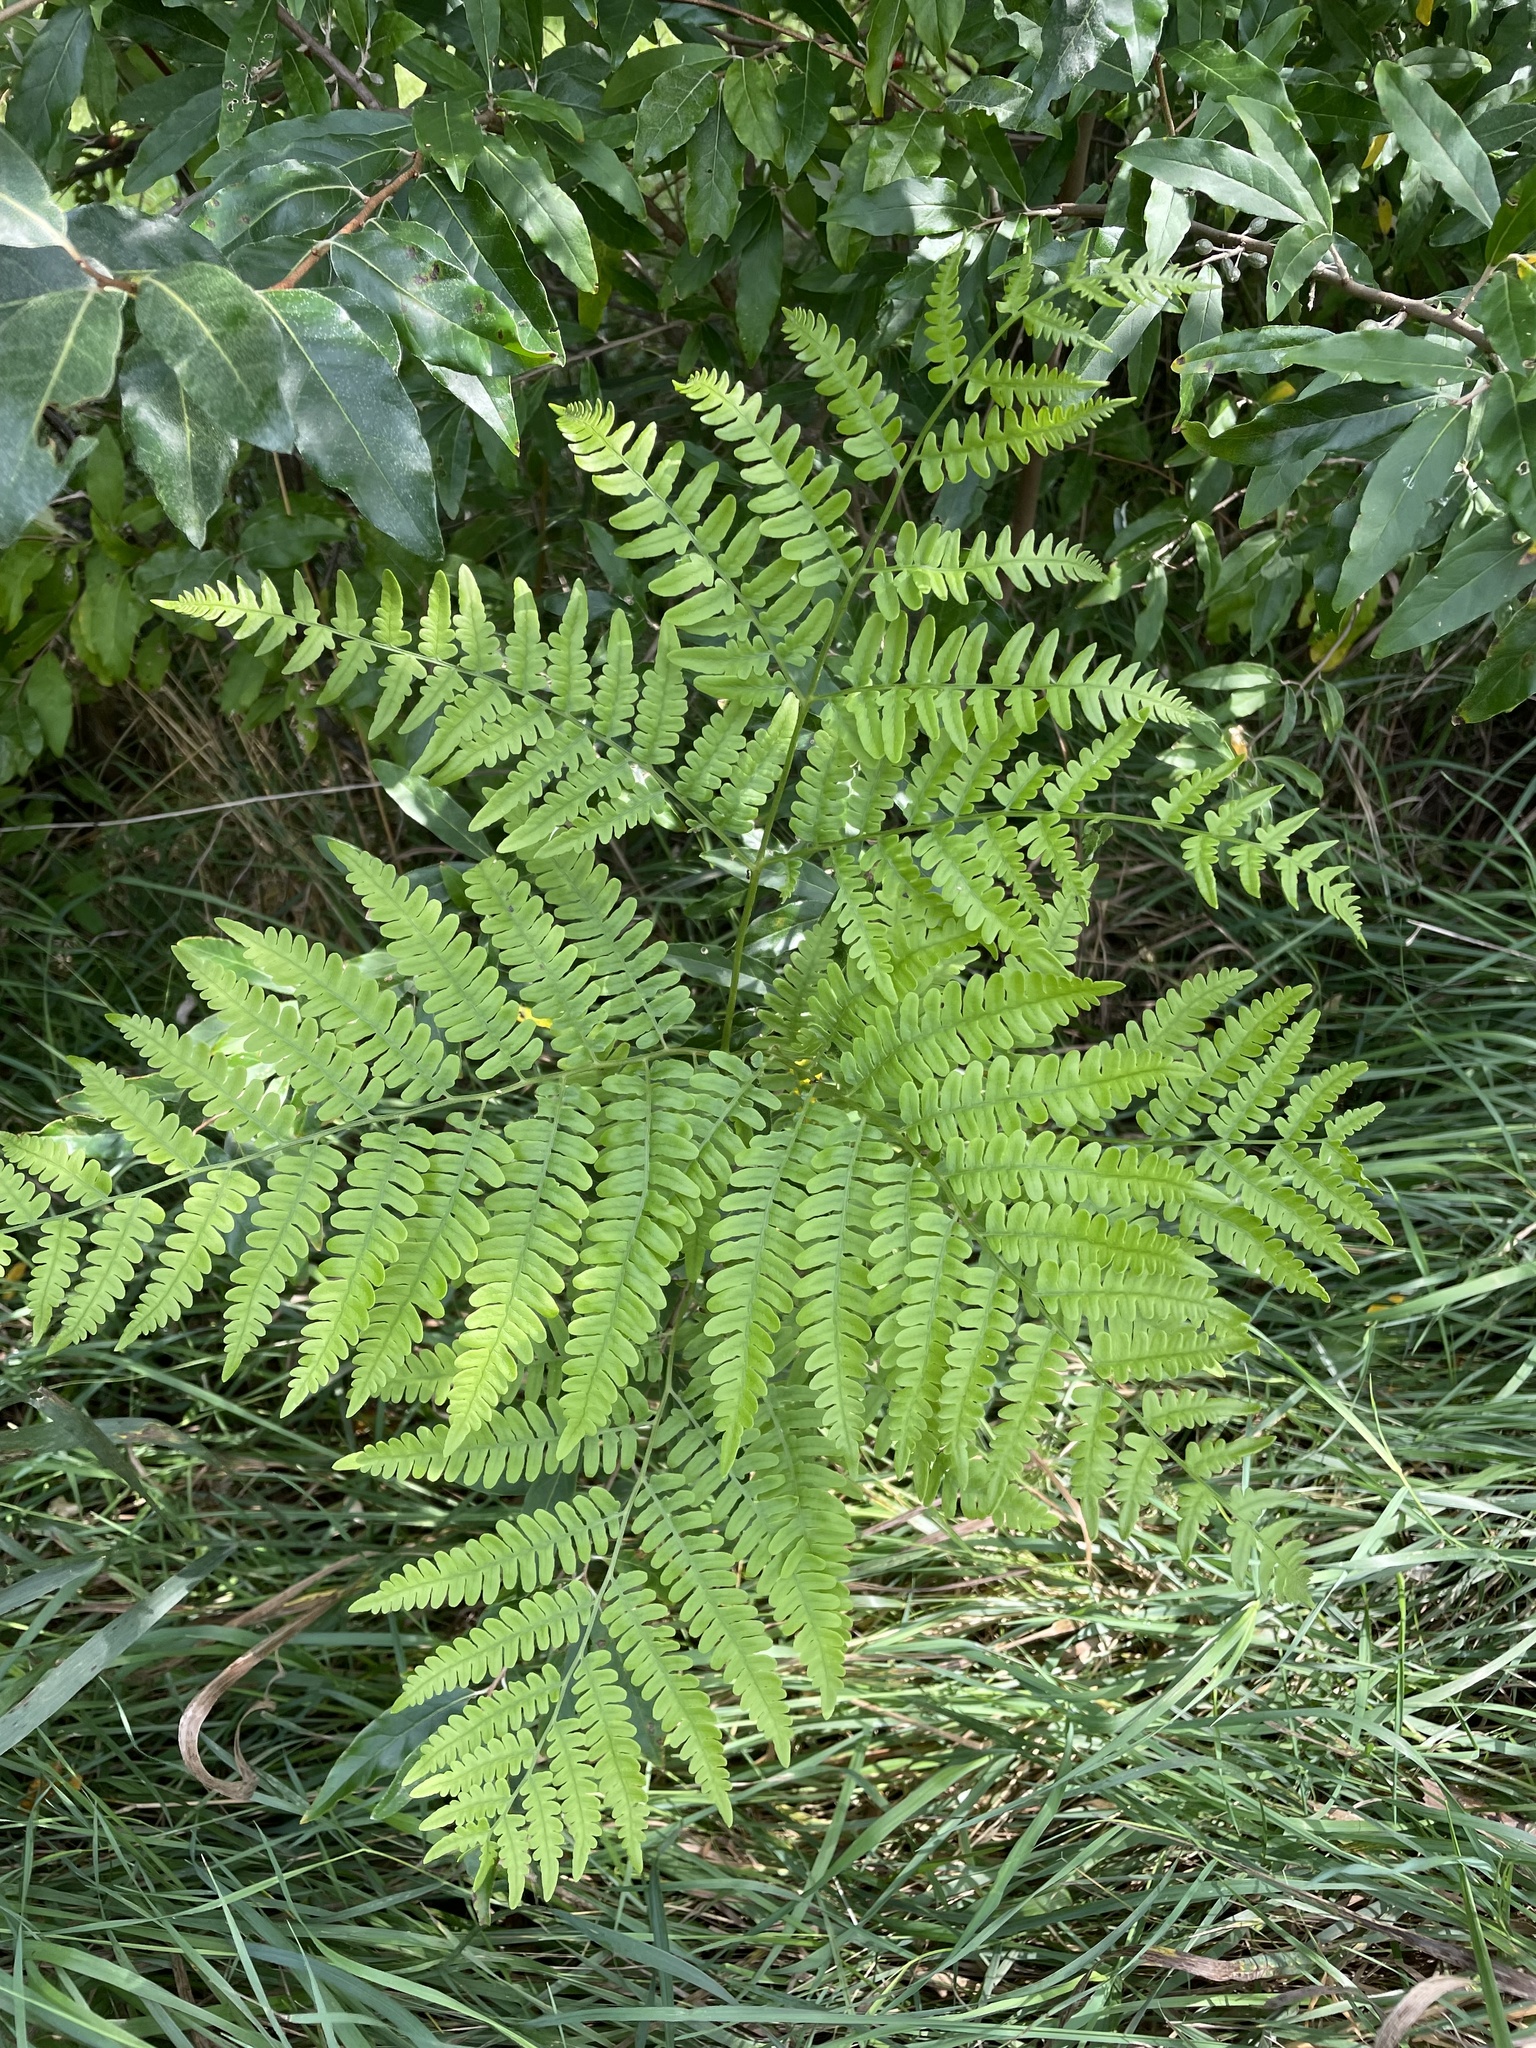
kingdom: Plantae
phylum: Tracheophyta
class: Polypodiopsida
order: Polypodiales
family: Dennstaedtiaceae
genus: Pteridium
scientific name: Pteridium aquilinum
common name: Bracken
